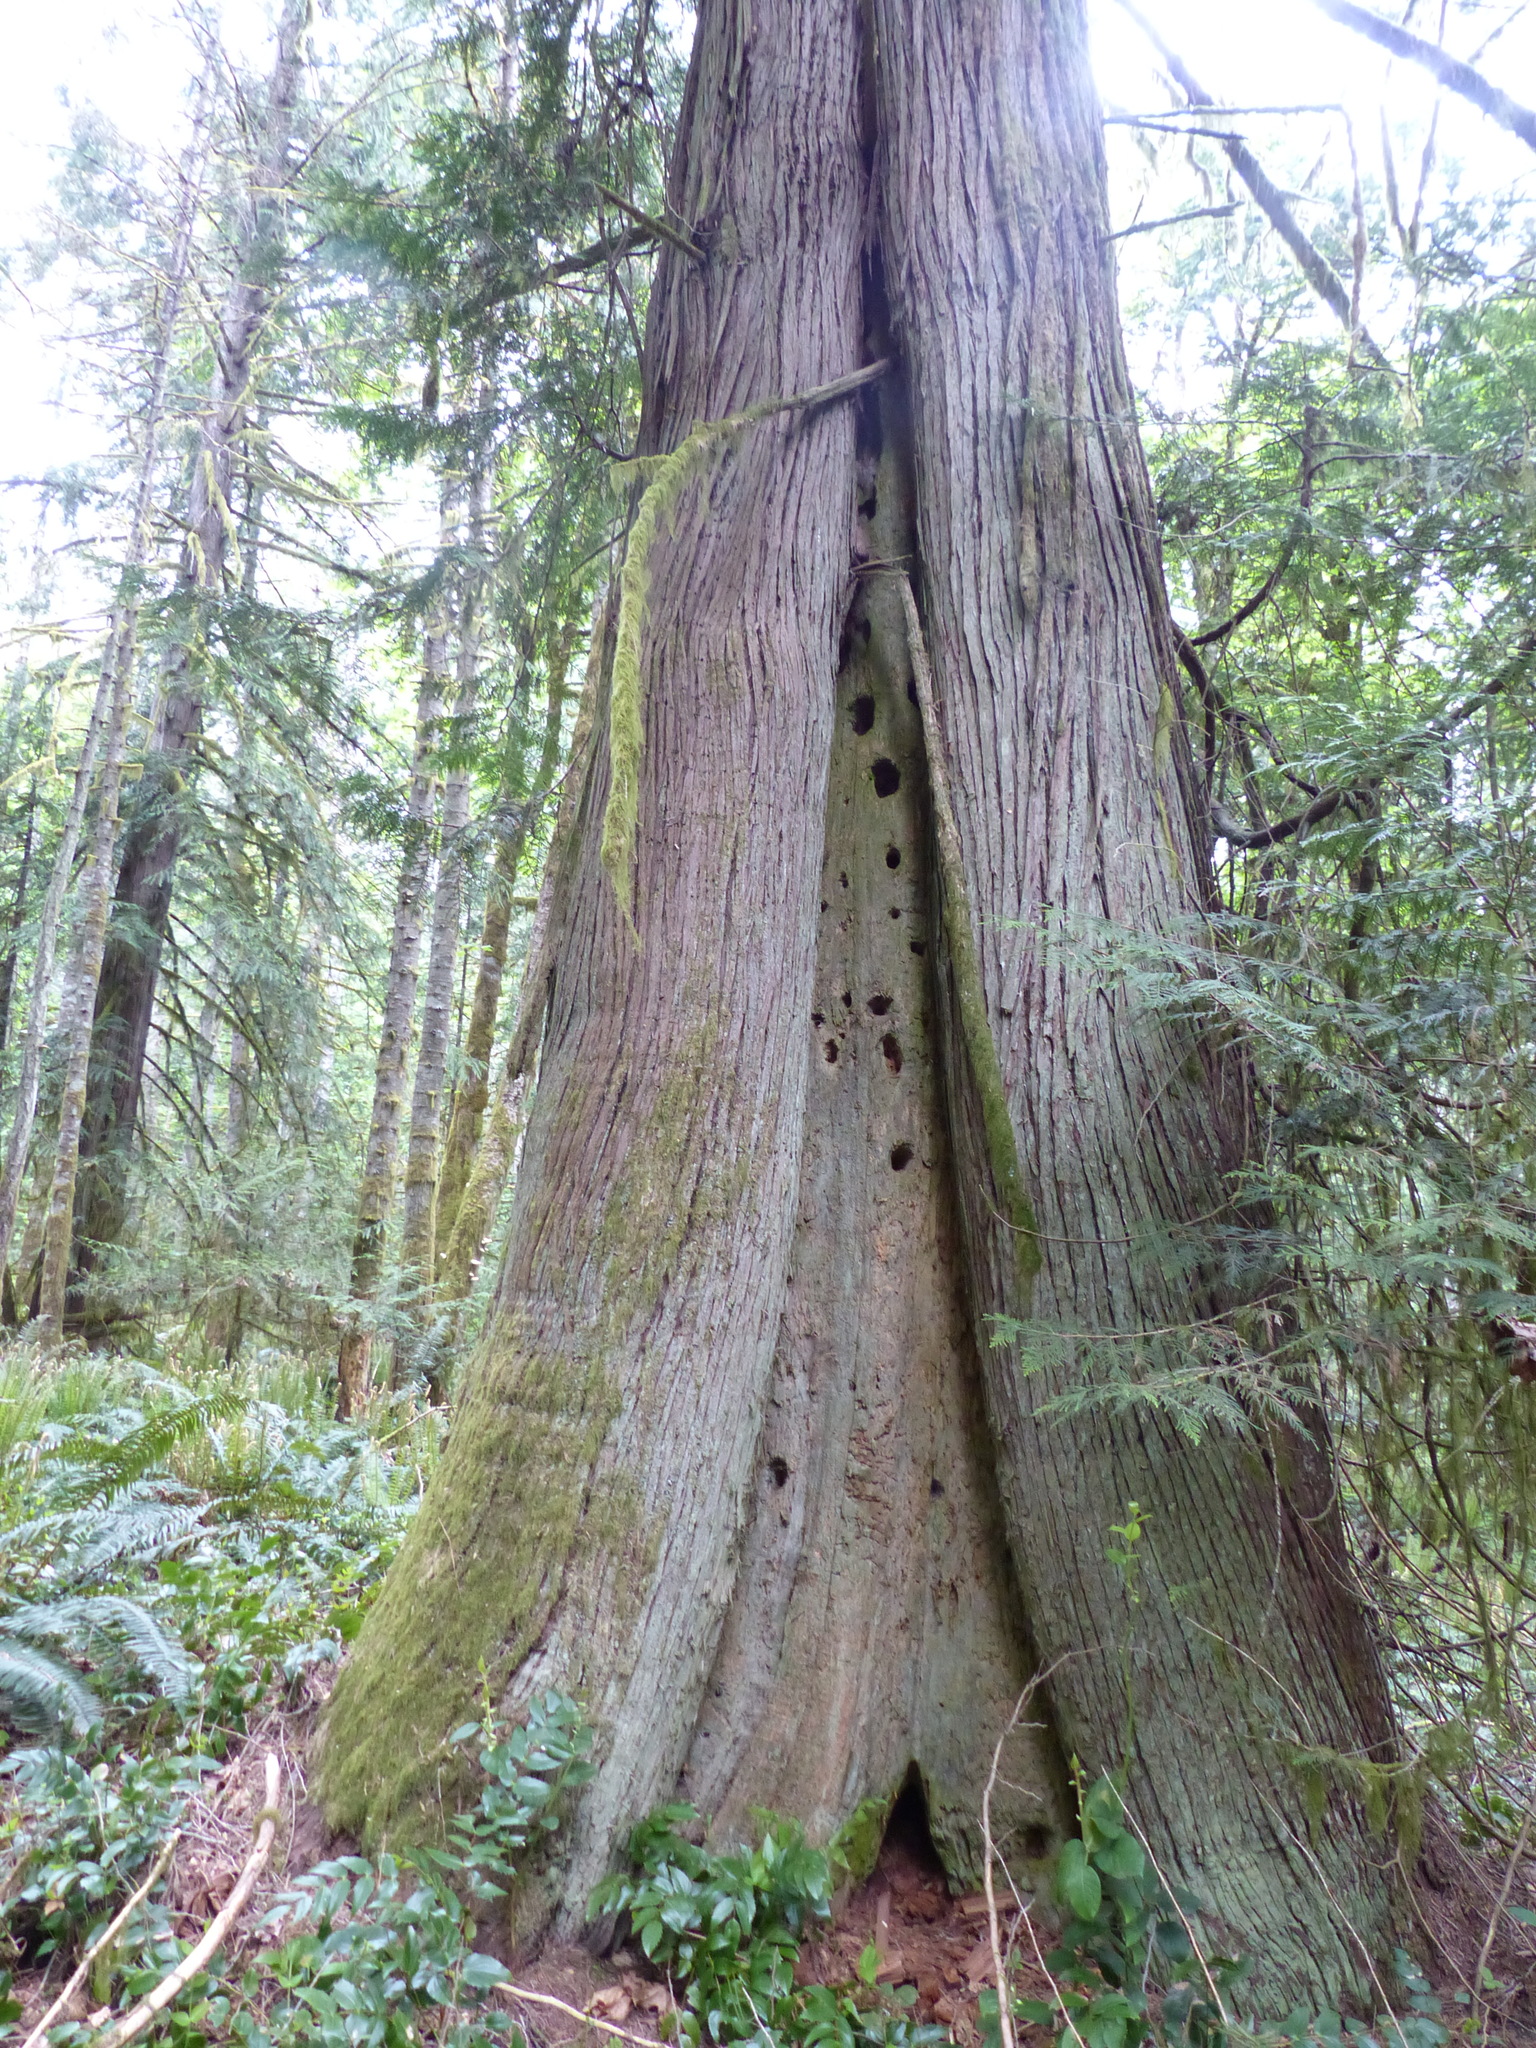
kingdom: Plantae
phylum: Tracheophyta
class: Pinopsida
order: Pinales
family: Cupressaceae
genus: Thuja
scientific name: Thuja plicata
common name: Western red-cedar
